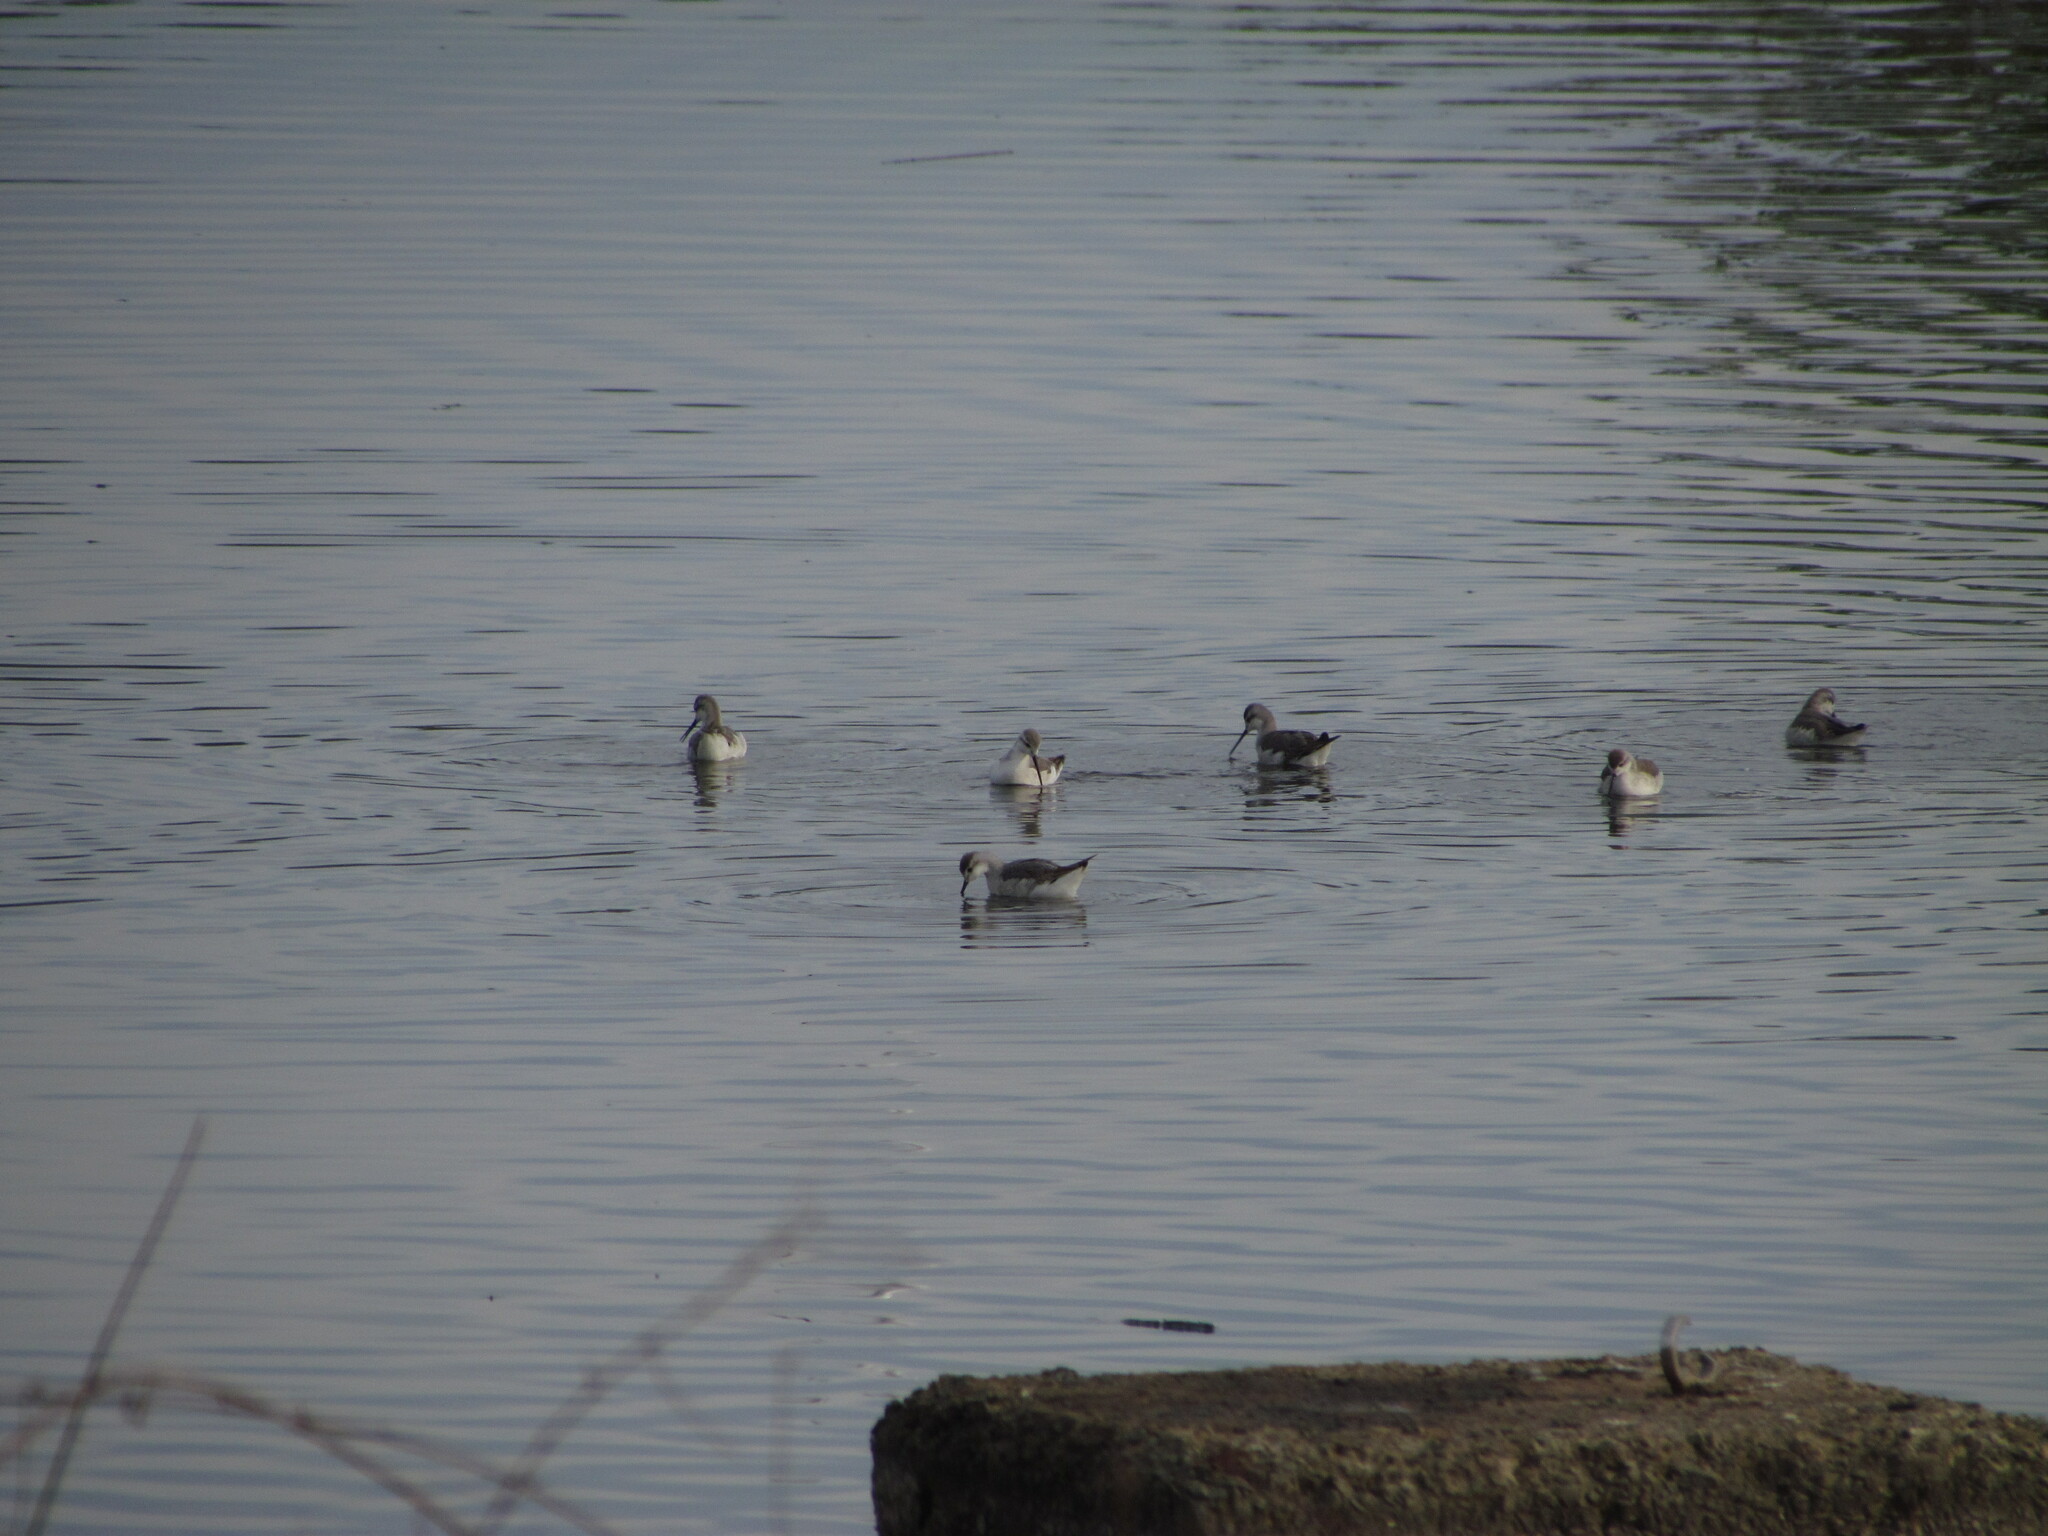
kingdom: Animalia
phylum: Chordata
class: Aves
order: Charadriiformes
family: Scolopacidae
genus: Phalaropus
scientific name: Phalaropus tricolor
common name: Wilson's phalarope
